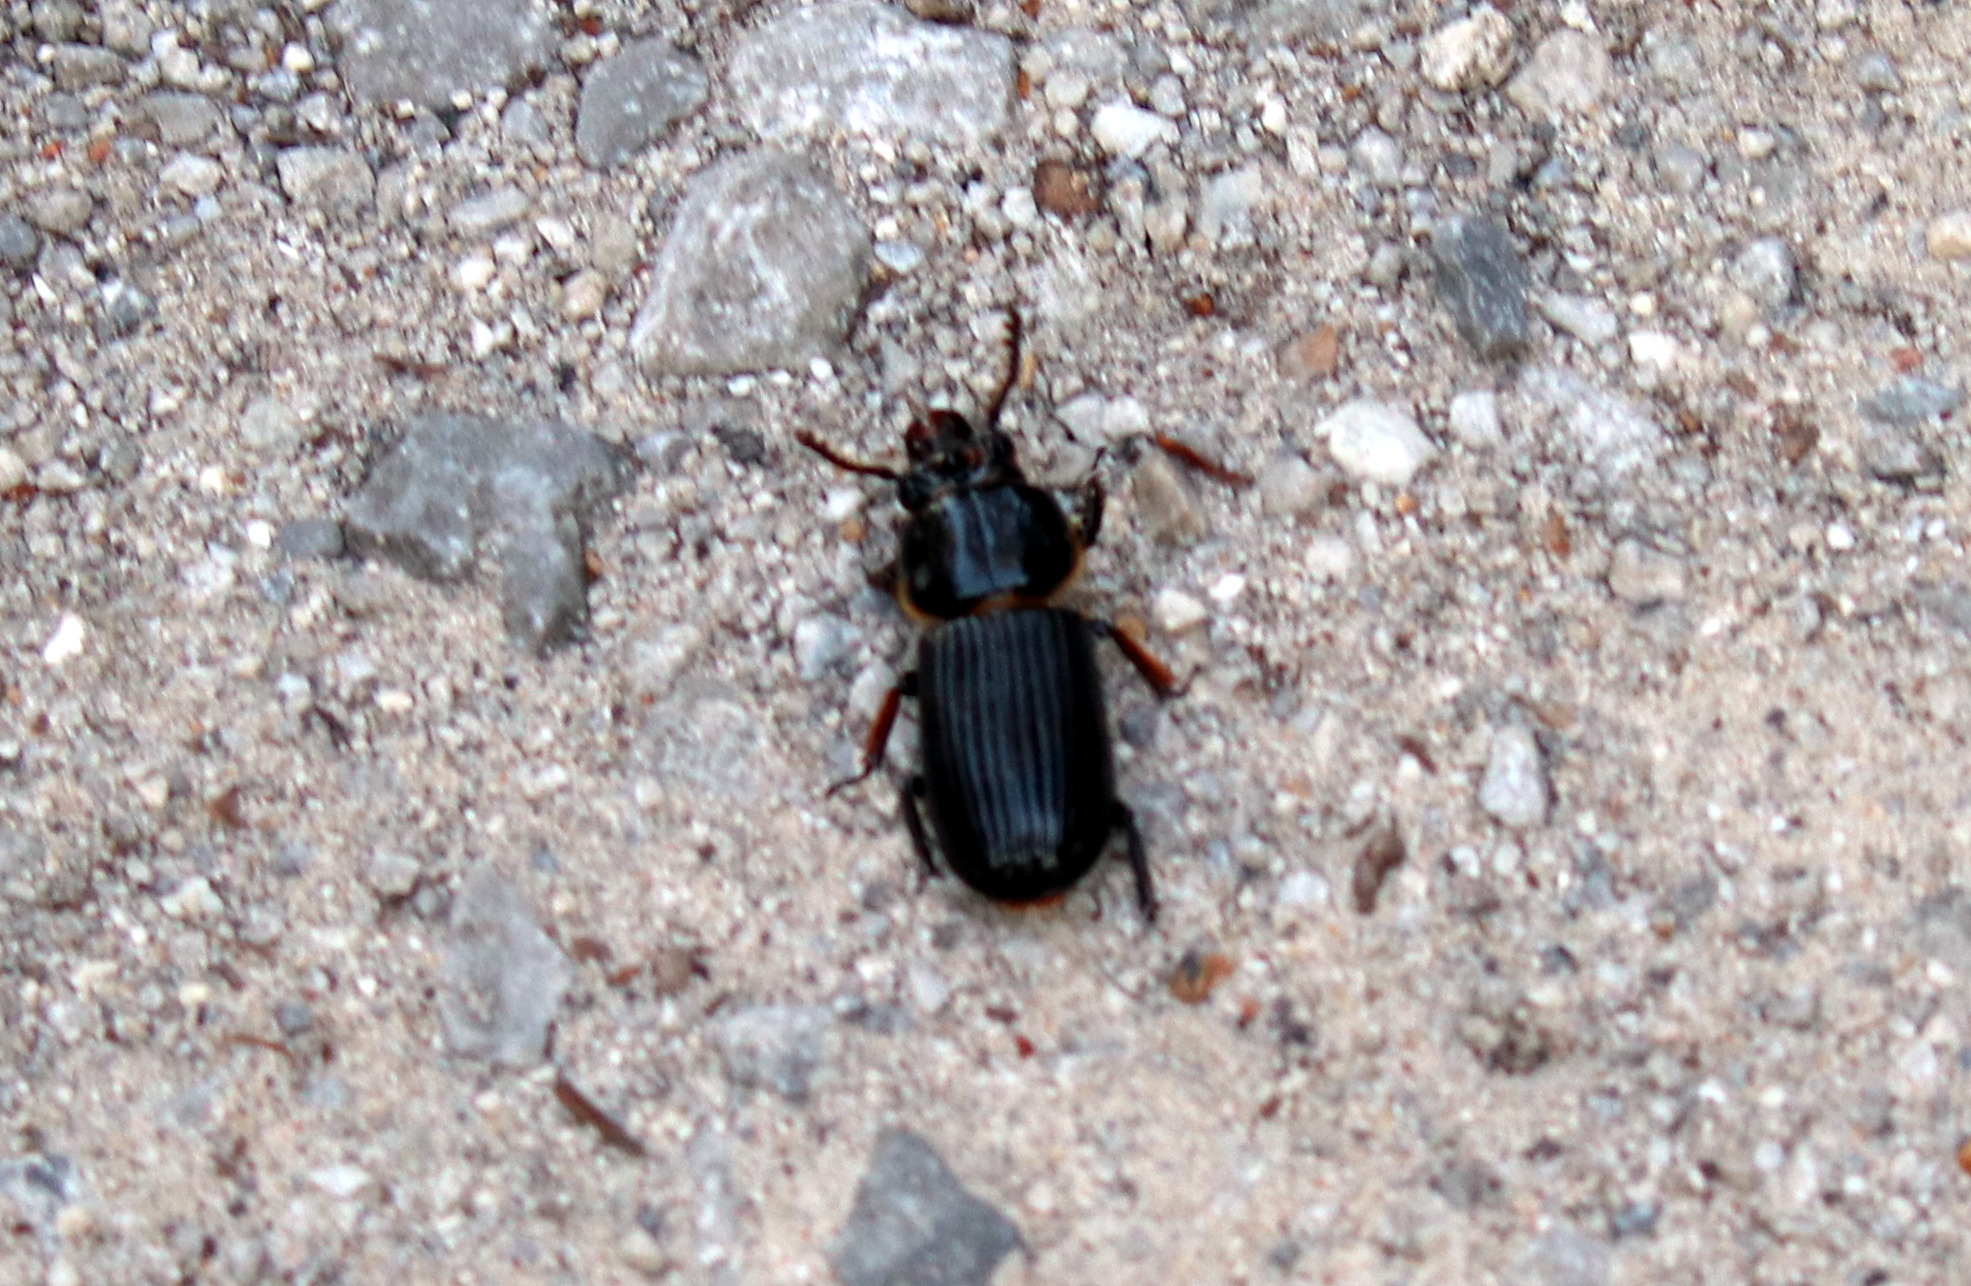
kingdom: Animalia
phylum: Arthropoda
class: Insecta
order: Coleoptera
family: Passalidae
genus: Odontotaenius
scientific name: Odontotaenius disjunctus
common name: Patent leather beetle
